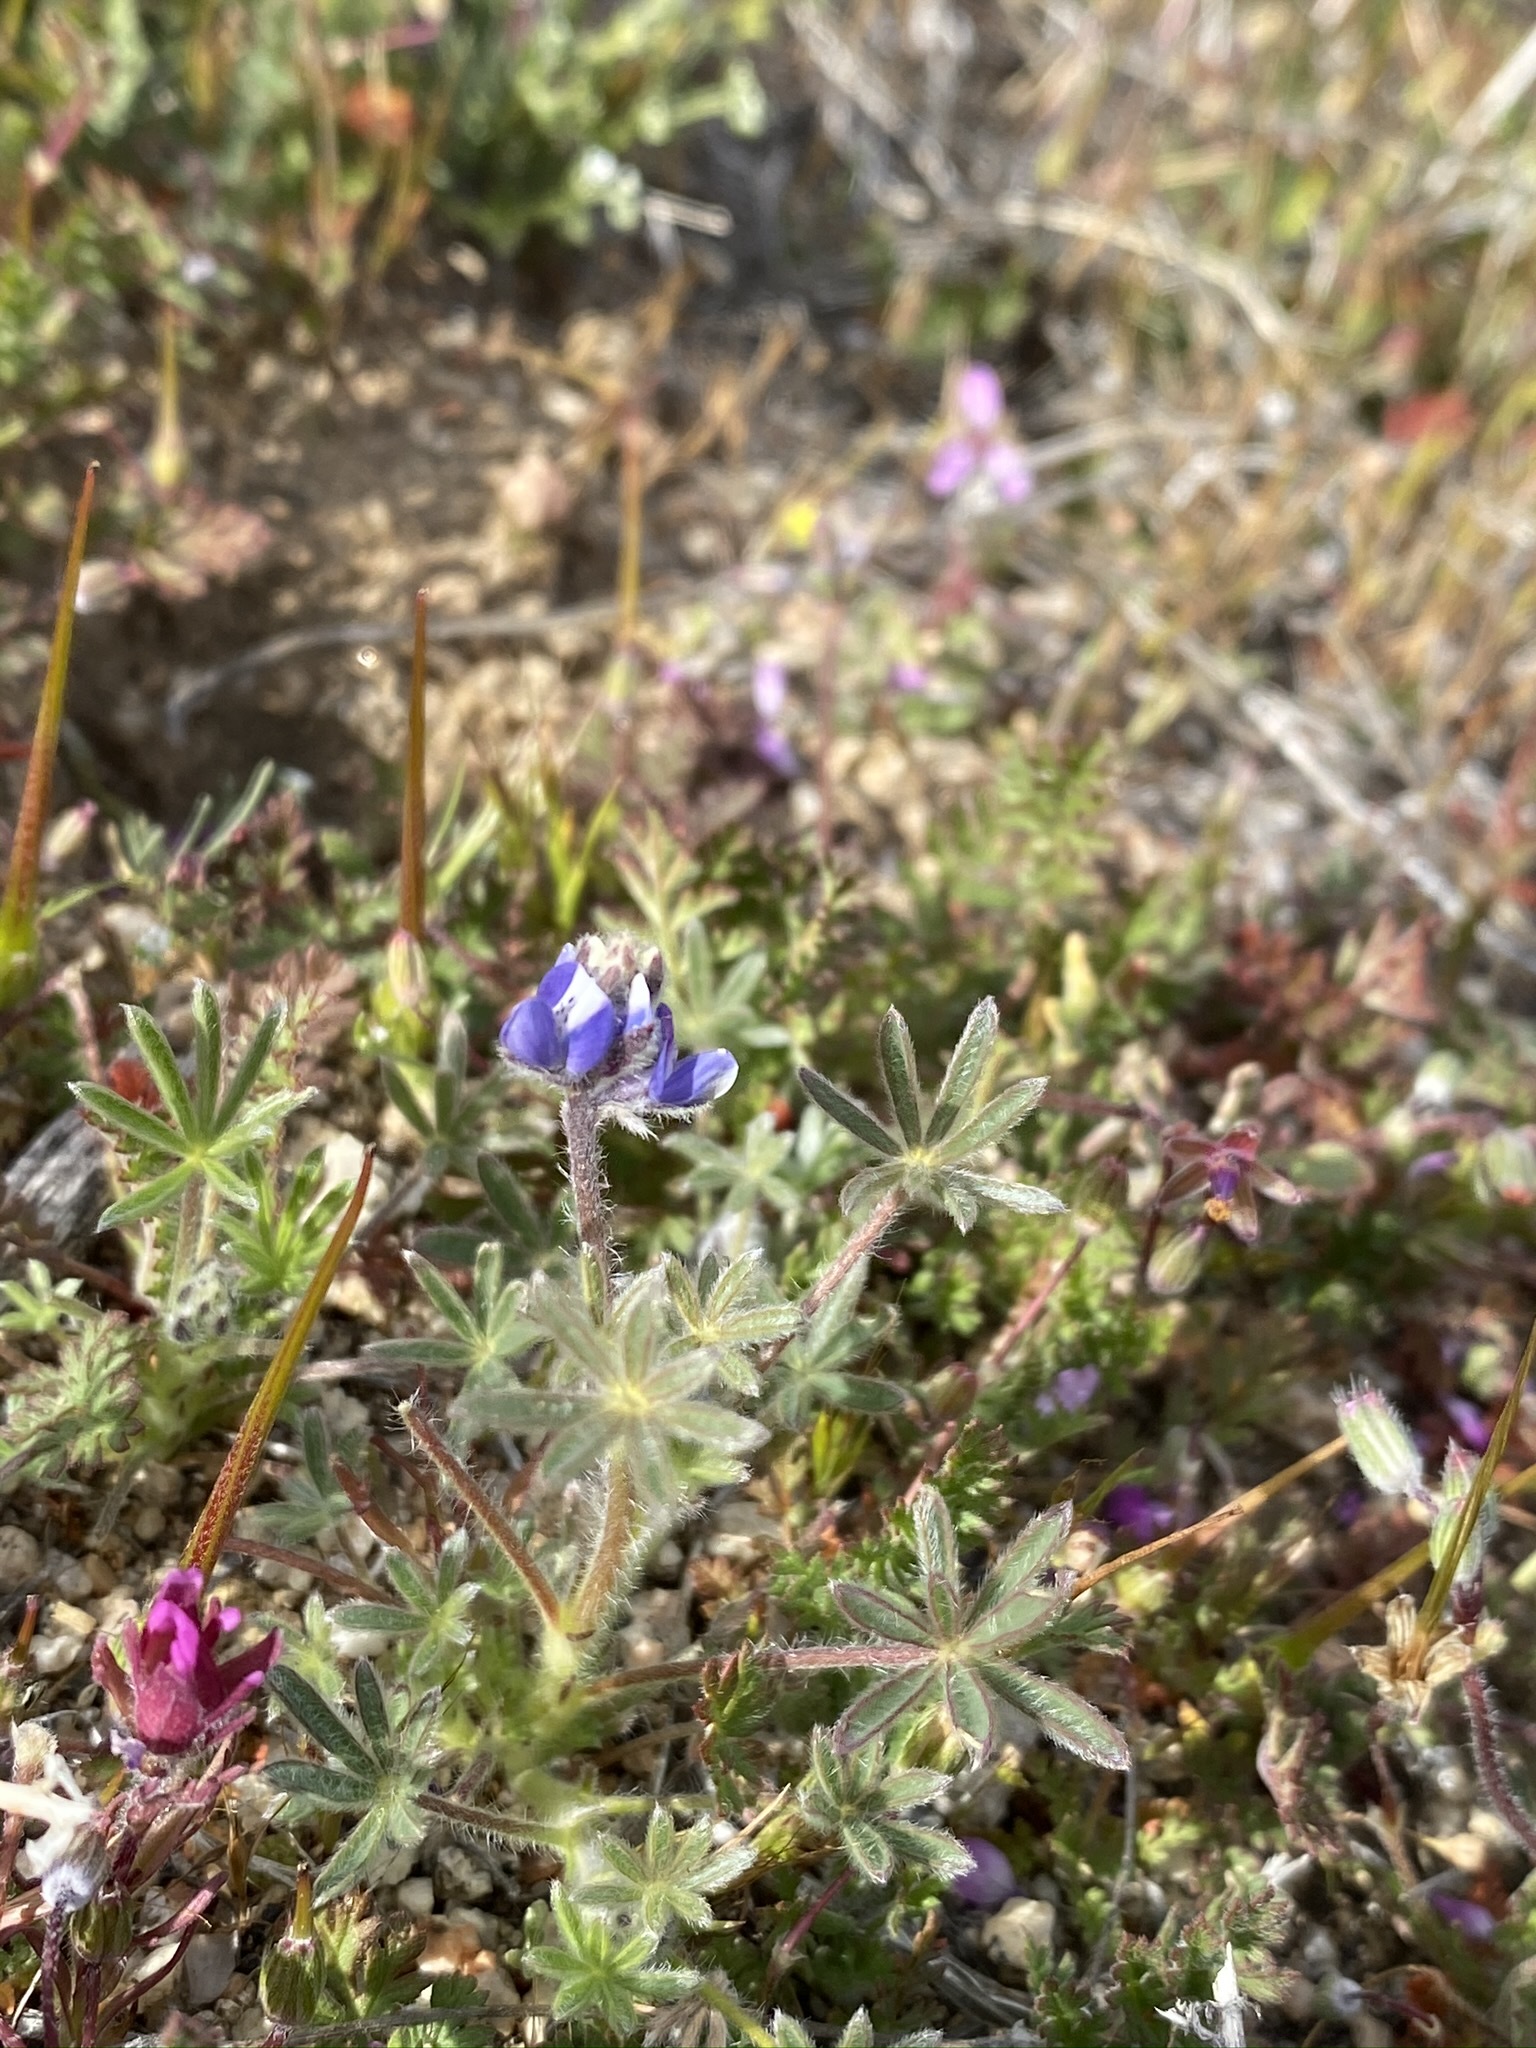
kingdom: Plantae
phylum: Tracheophyta
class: Magnoliopsida
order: Fabales
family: Fabaceae
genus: Lupinus
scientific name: Lupinus bicolor
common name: Miniature lupine
